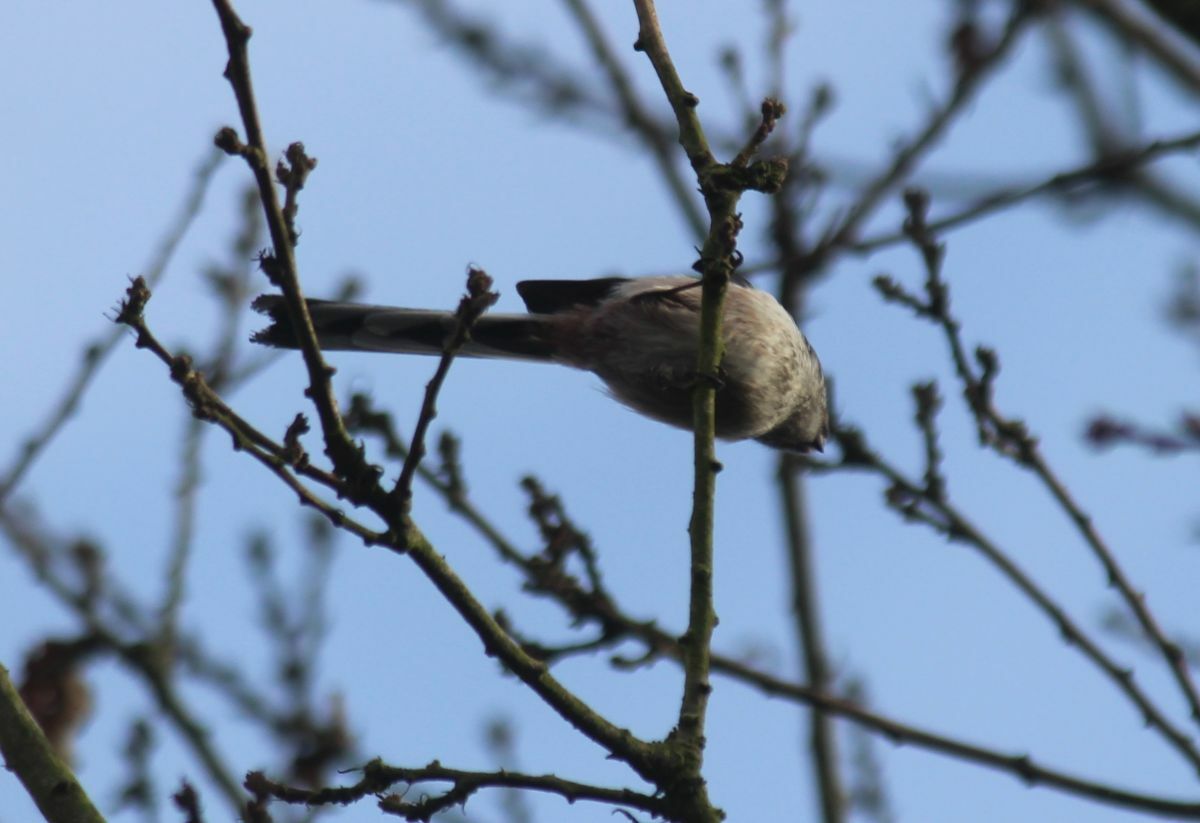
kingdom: Animalia
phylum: Chordata
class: Aves
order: Passeriformes
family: Aegithalidae
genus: Aegithalos
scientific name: Aegithalos caudatus
